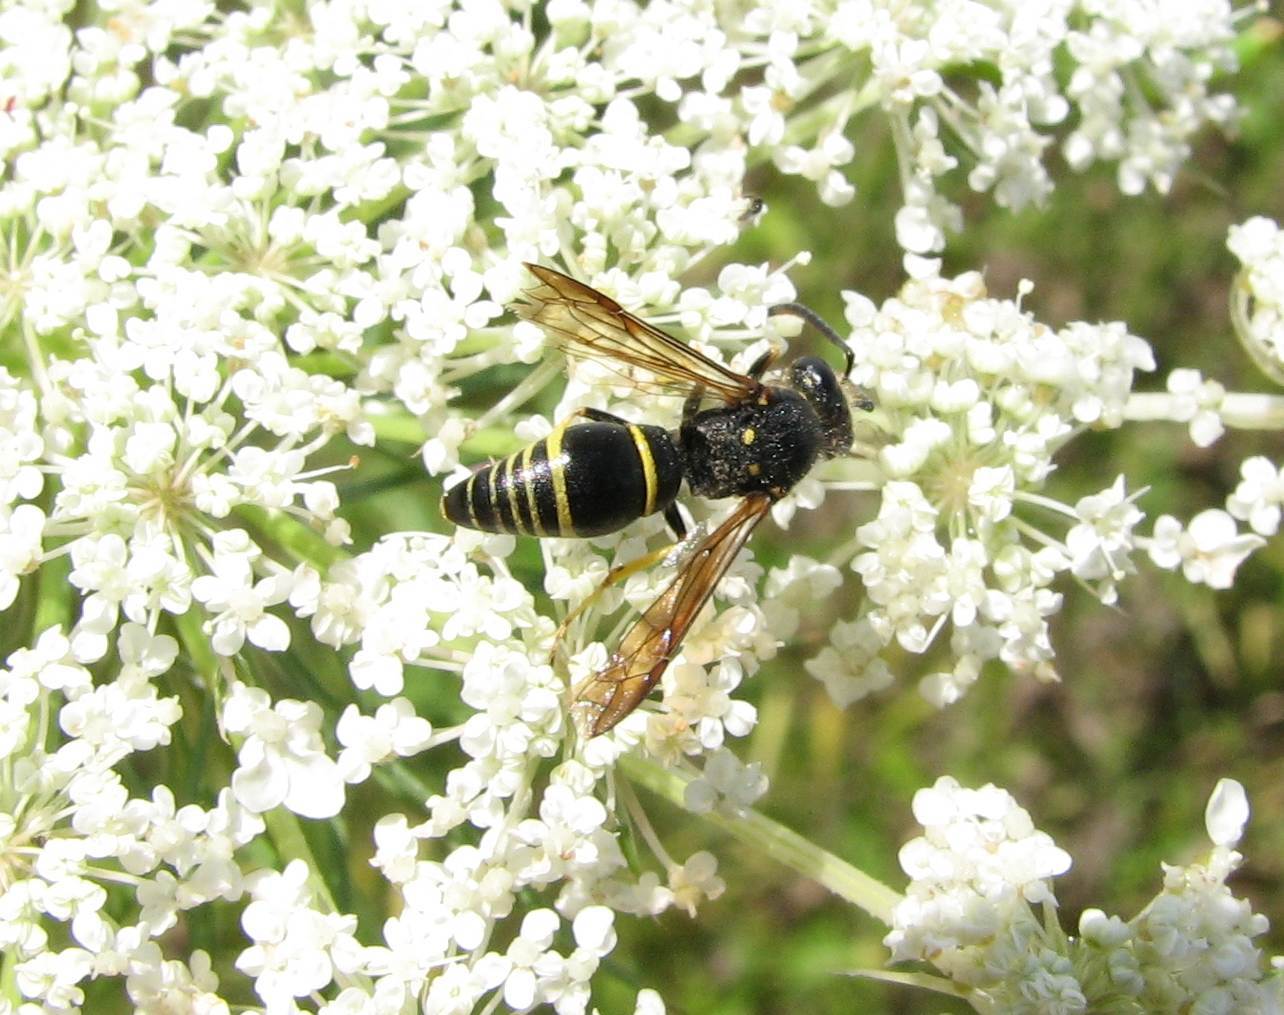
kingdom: Animalia
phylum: Arthropoda
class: Insecta
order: Hymenoptera
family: Vespidae
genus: Ancistrocerus
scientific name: Ancistrocerus
